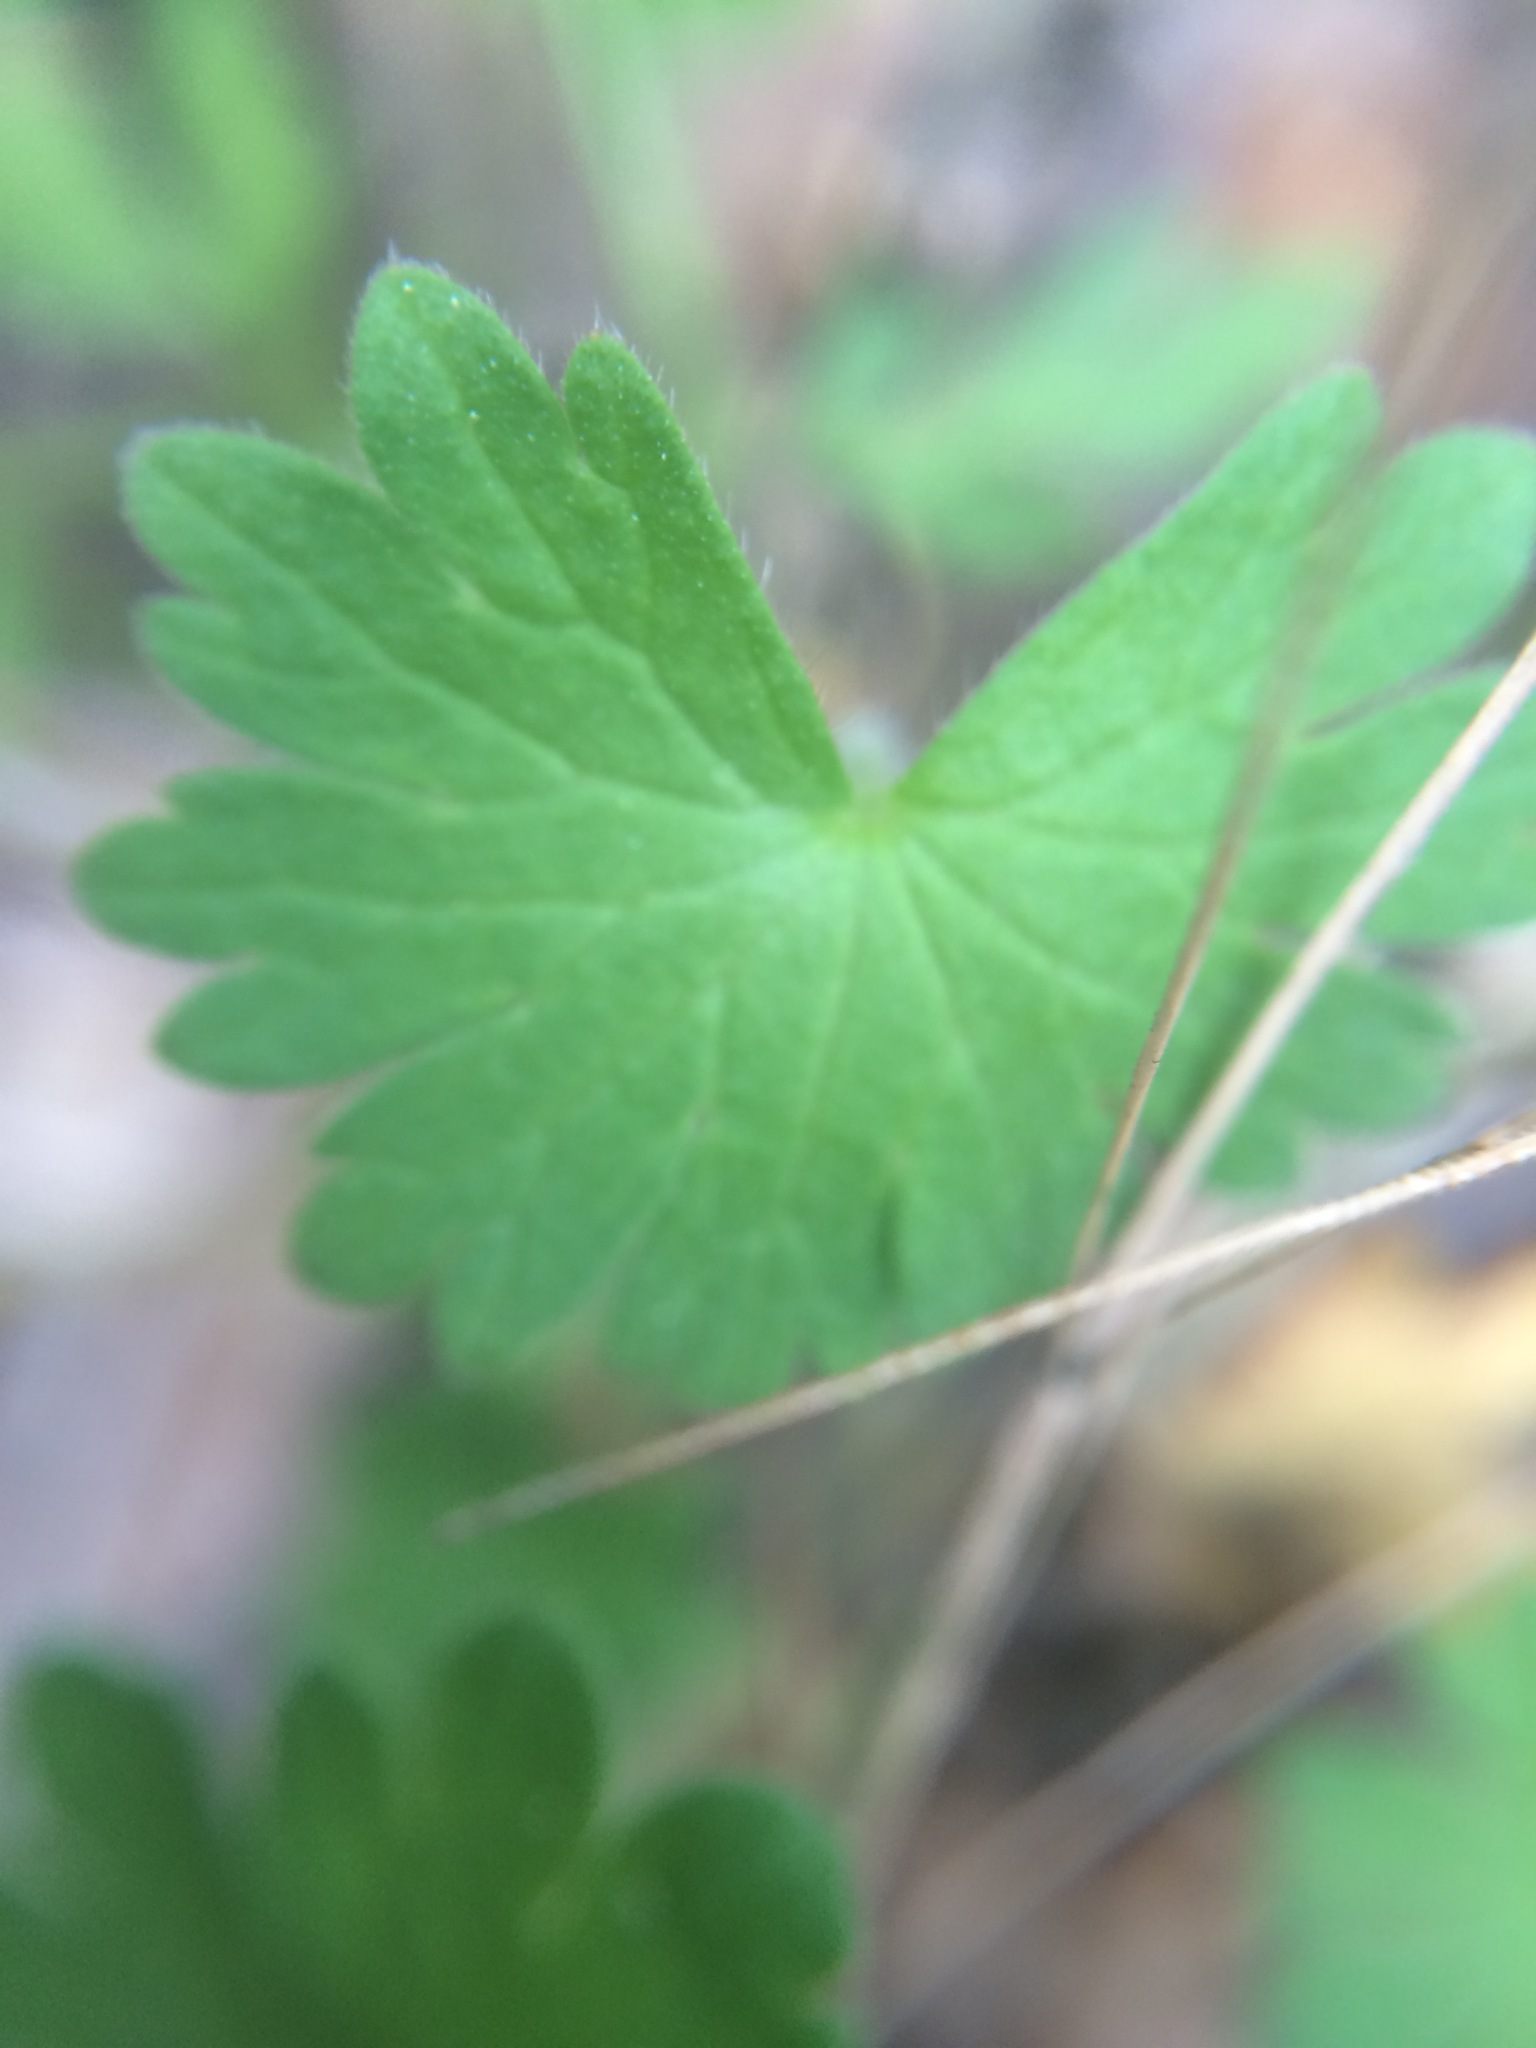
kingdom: Plantae
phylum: Tracheophyta
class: Magnoliopsida
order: Geraniales
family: Geraniaceae
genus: Geranium
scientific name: Geranium molle
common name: Dove's-foot crane's-bill
